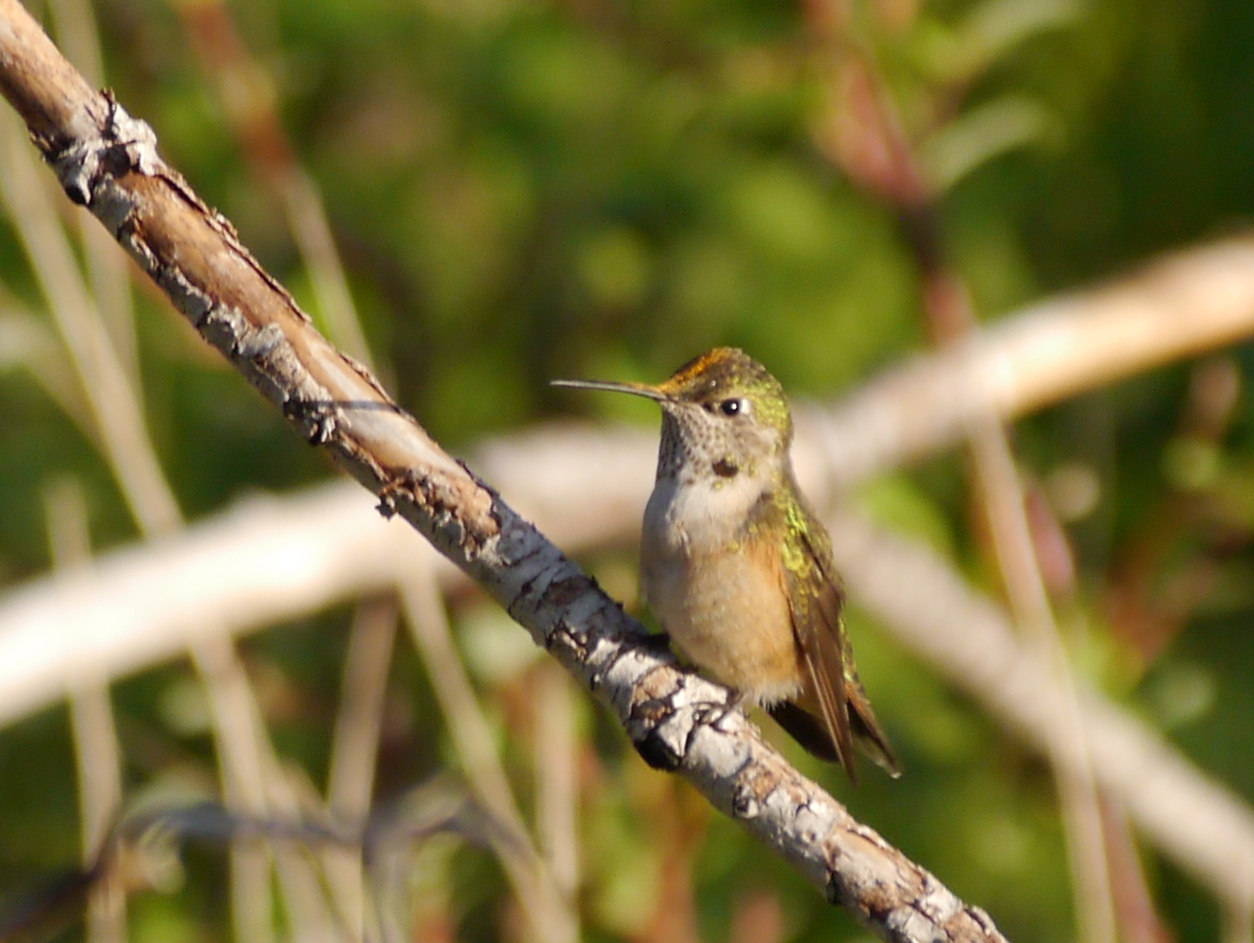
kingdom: Animalia
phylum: Chordata
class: Aves
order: Apodiformes
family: Trochilidae
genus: Selasphorus
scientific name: Selasphorus platycercus
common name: Broad-tailed hummingbird
